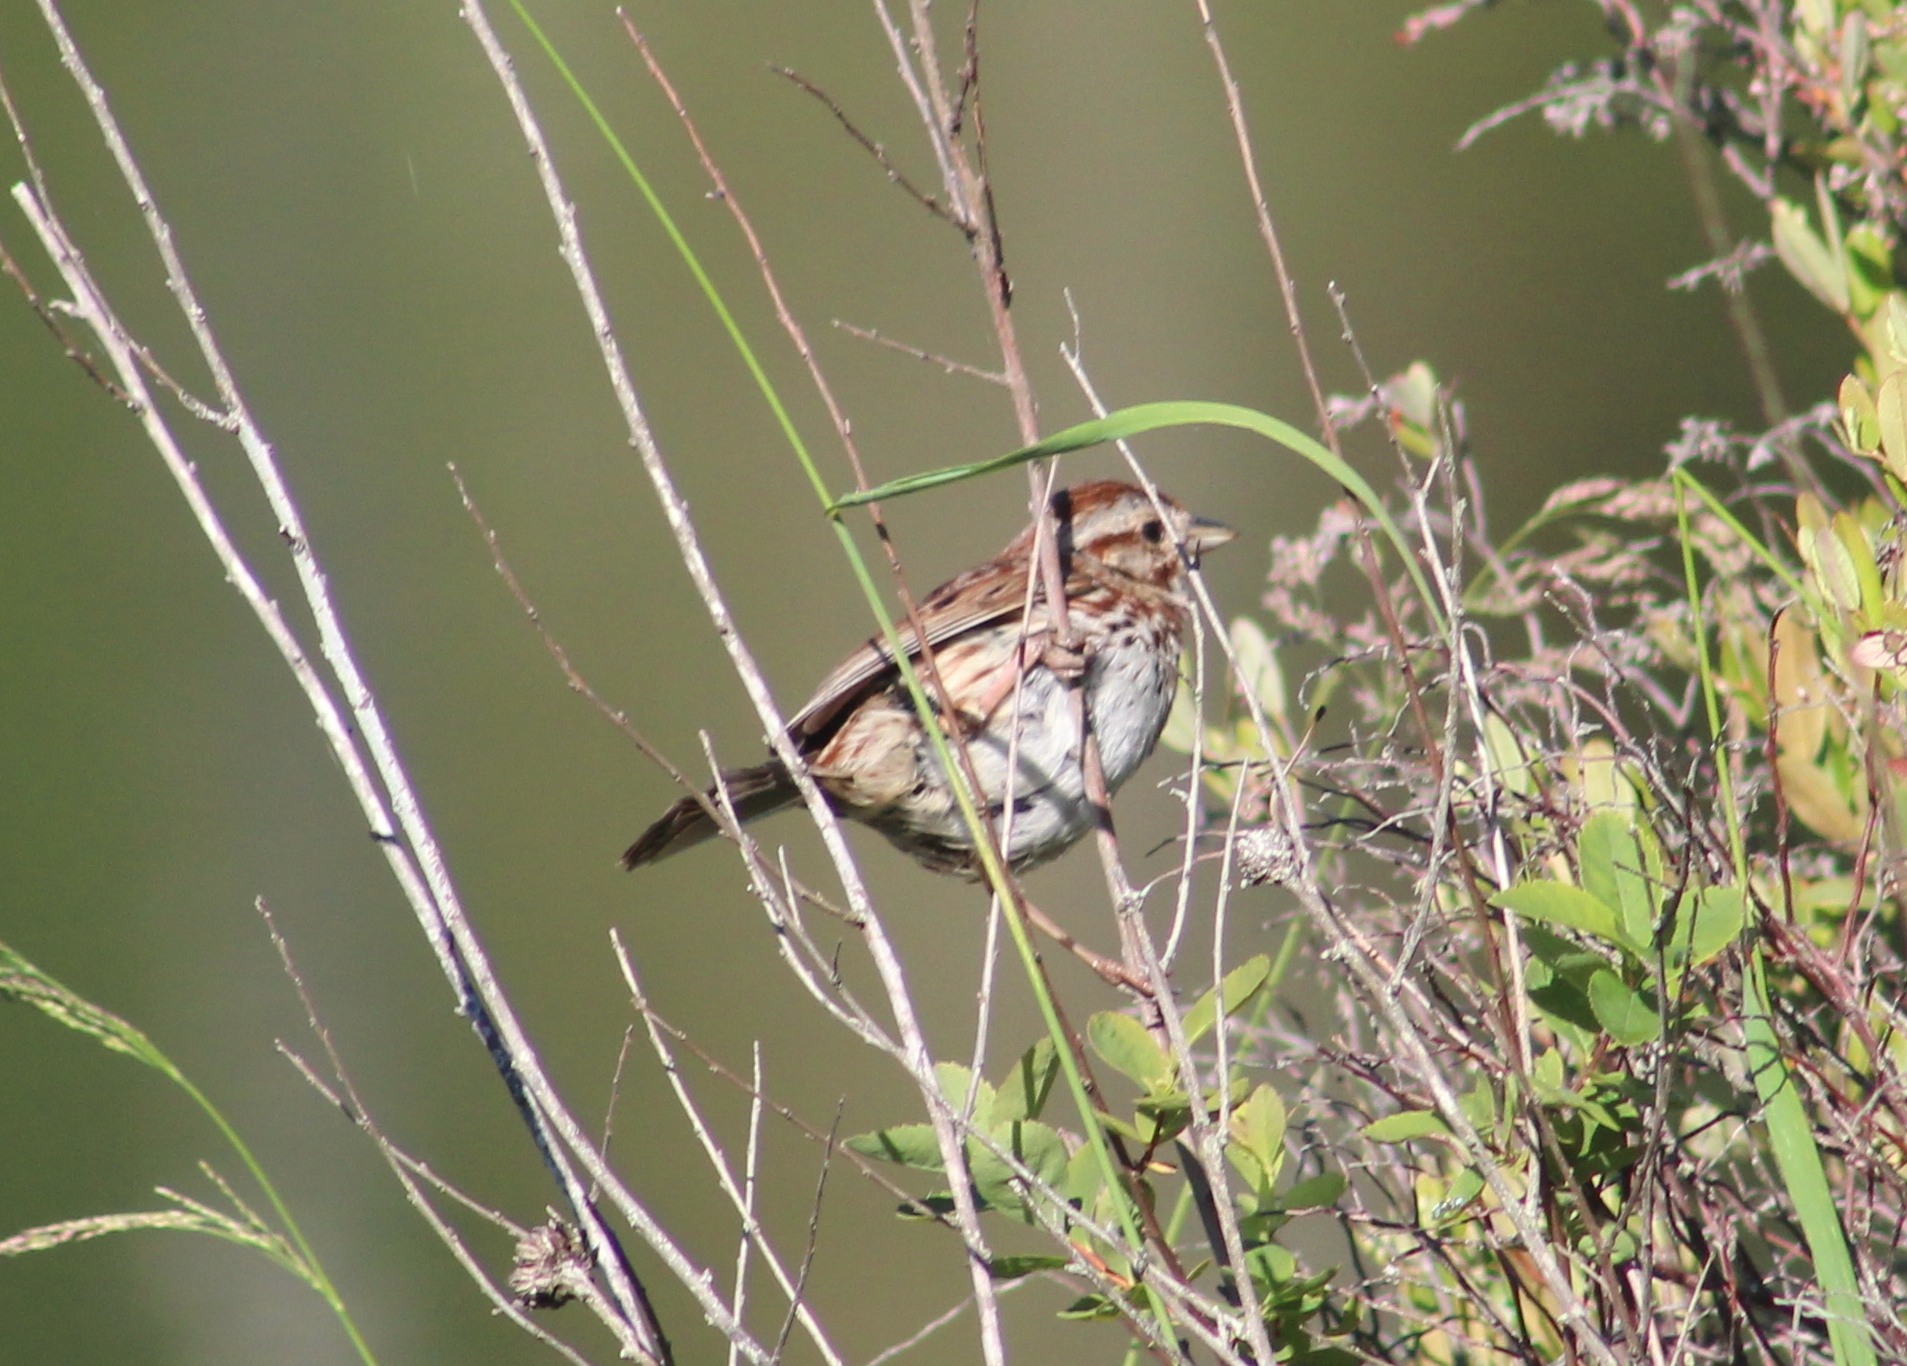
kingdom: Animalia
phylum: Chordata
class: Aves
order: Passeriformes
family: Passerellidae
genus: Melospiza
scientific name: Melospiza melodia
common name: Song sparrow
